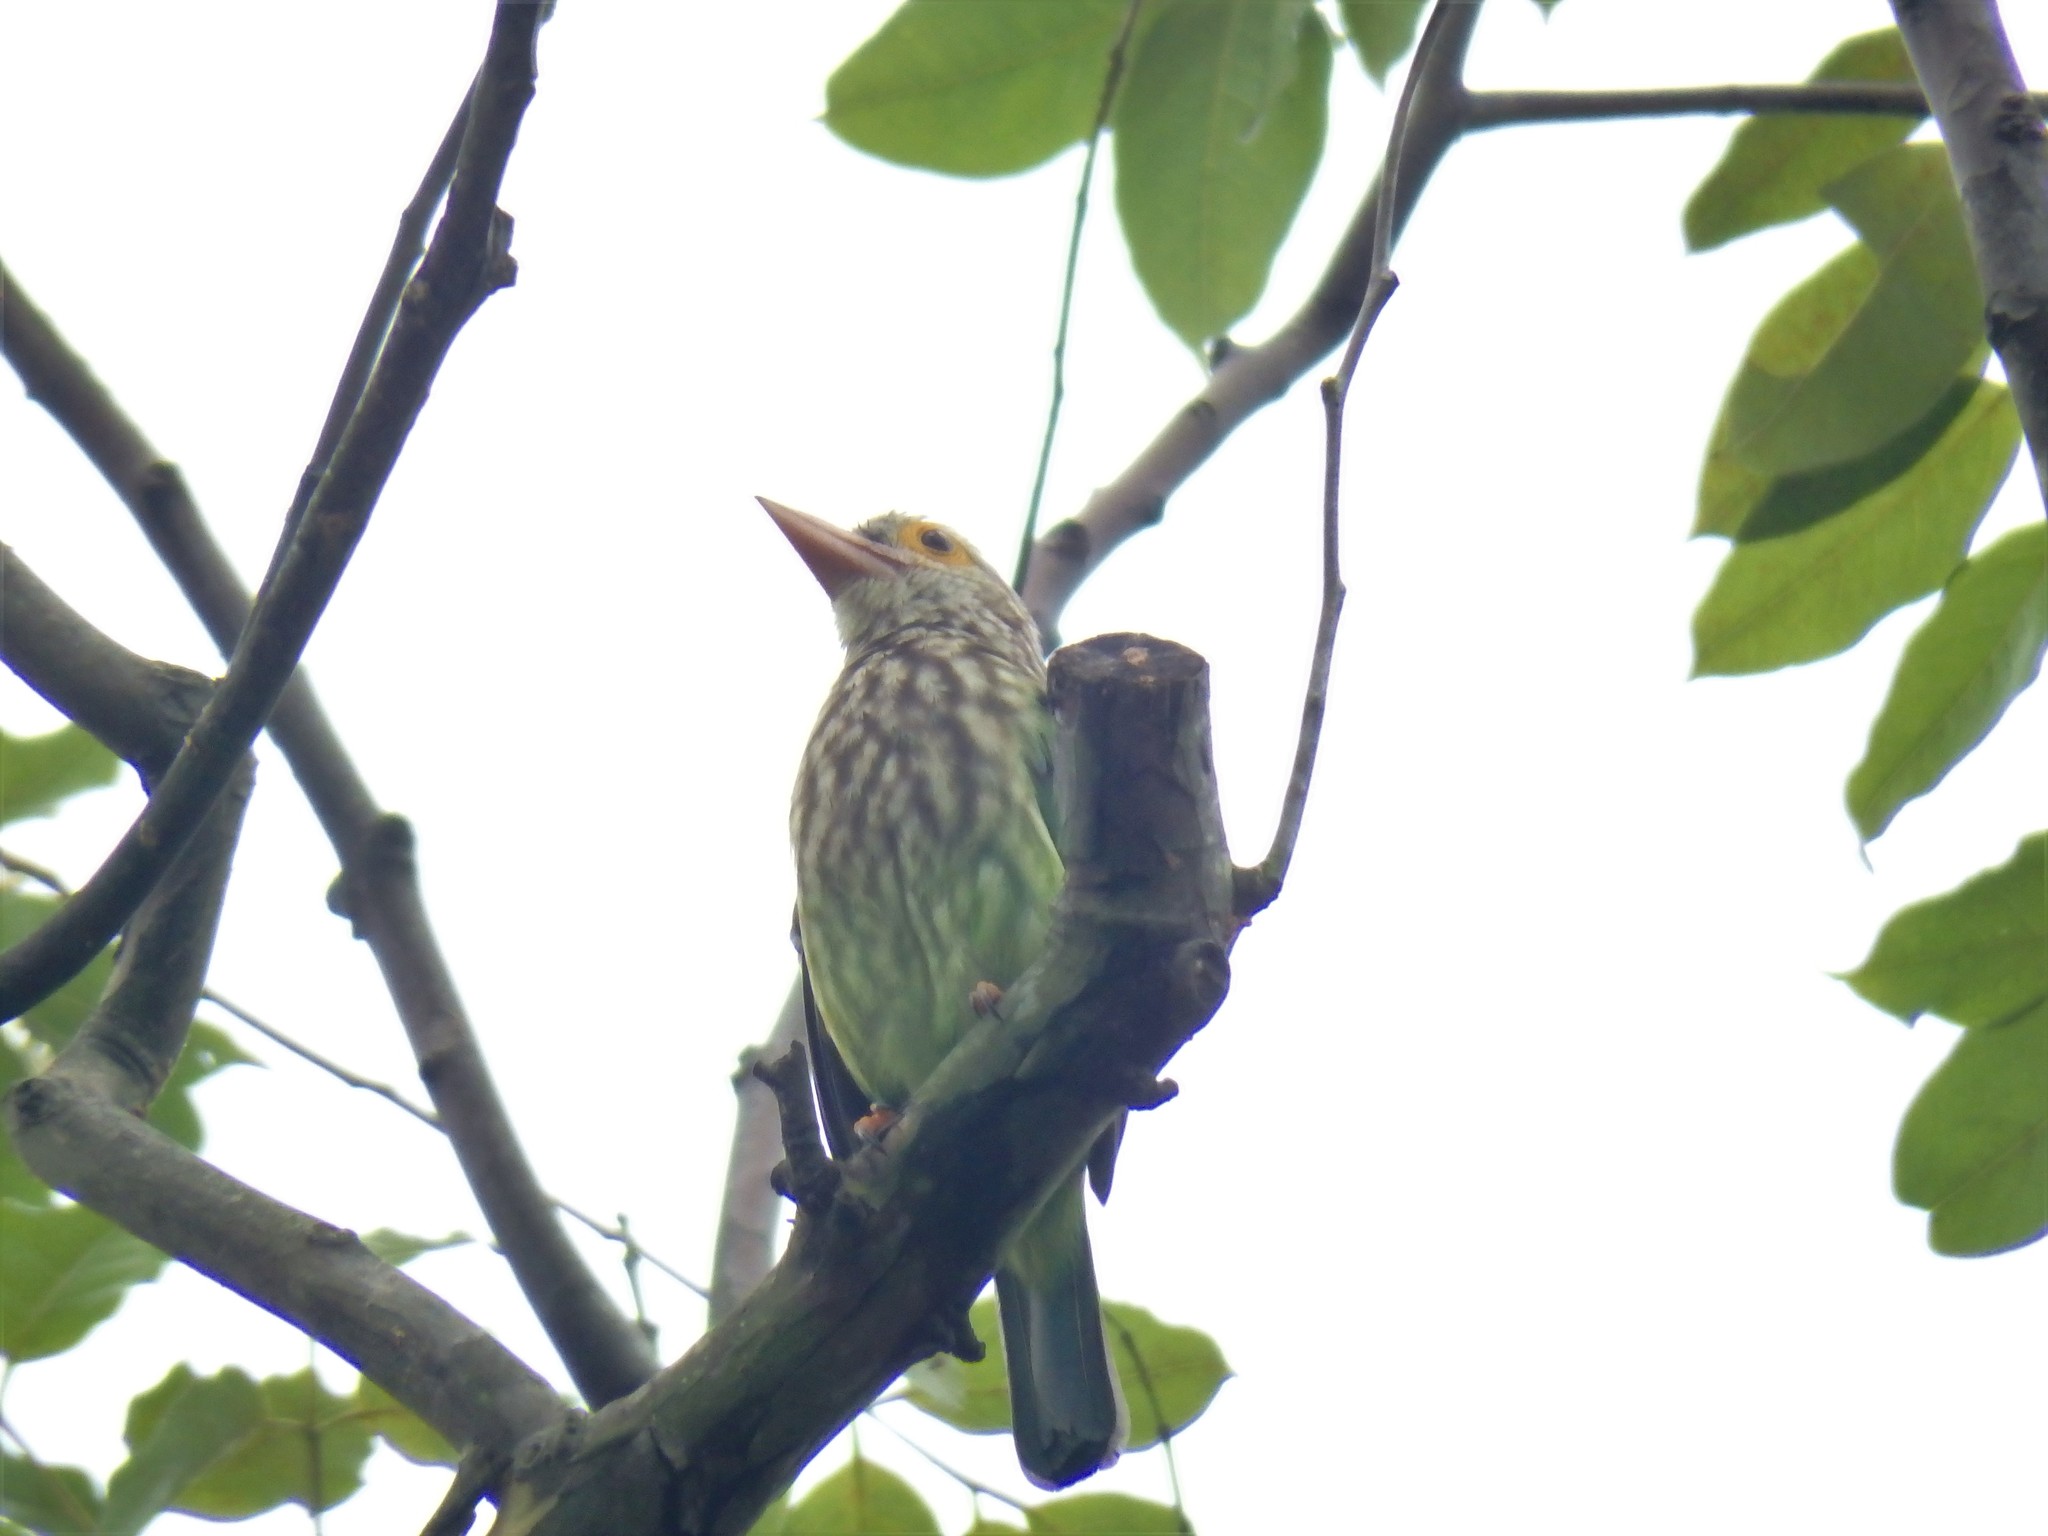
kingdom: Animalia
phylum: Chordata
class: Aves
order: Piciformes
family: Megalaimidae
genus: Psilopogon
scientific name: Psilopogon lineatus
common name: Lineated barbet
